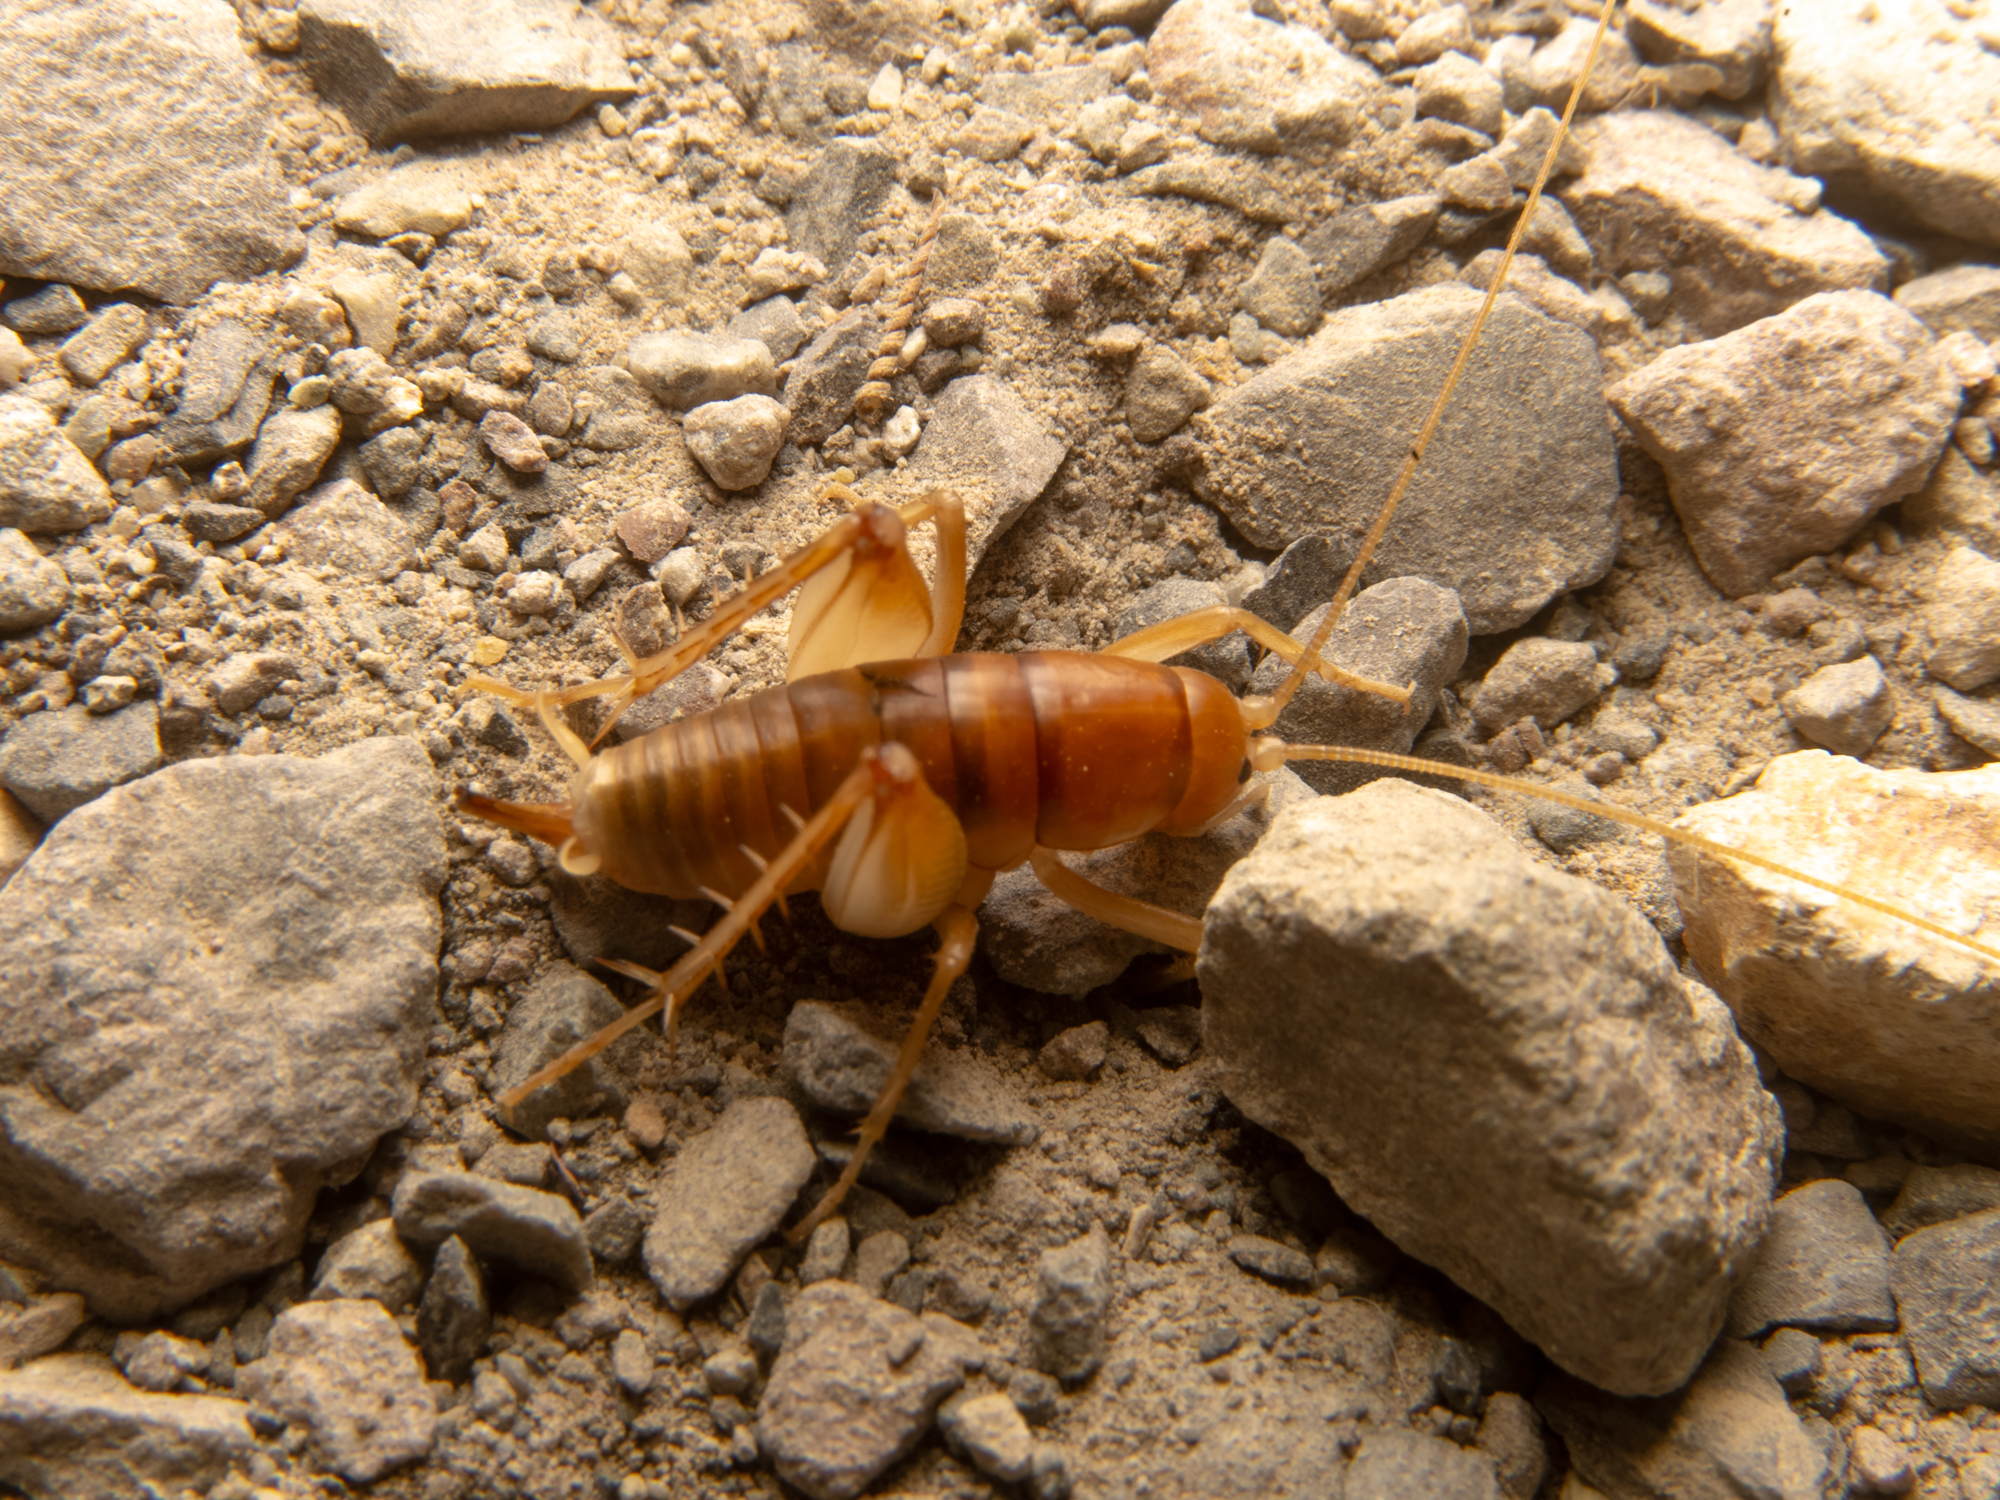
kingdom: Animalia
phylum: Arthropoda
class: Insecta
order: Orthoptera
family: Rhaphidophoridae
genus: Ceuthophilus
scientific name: Ceuthophilus californianus
